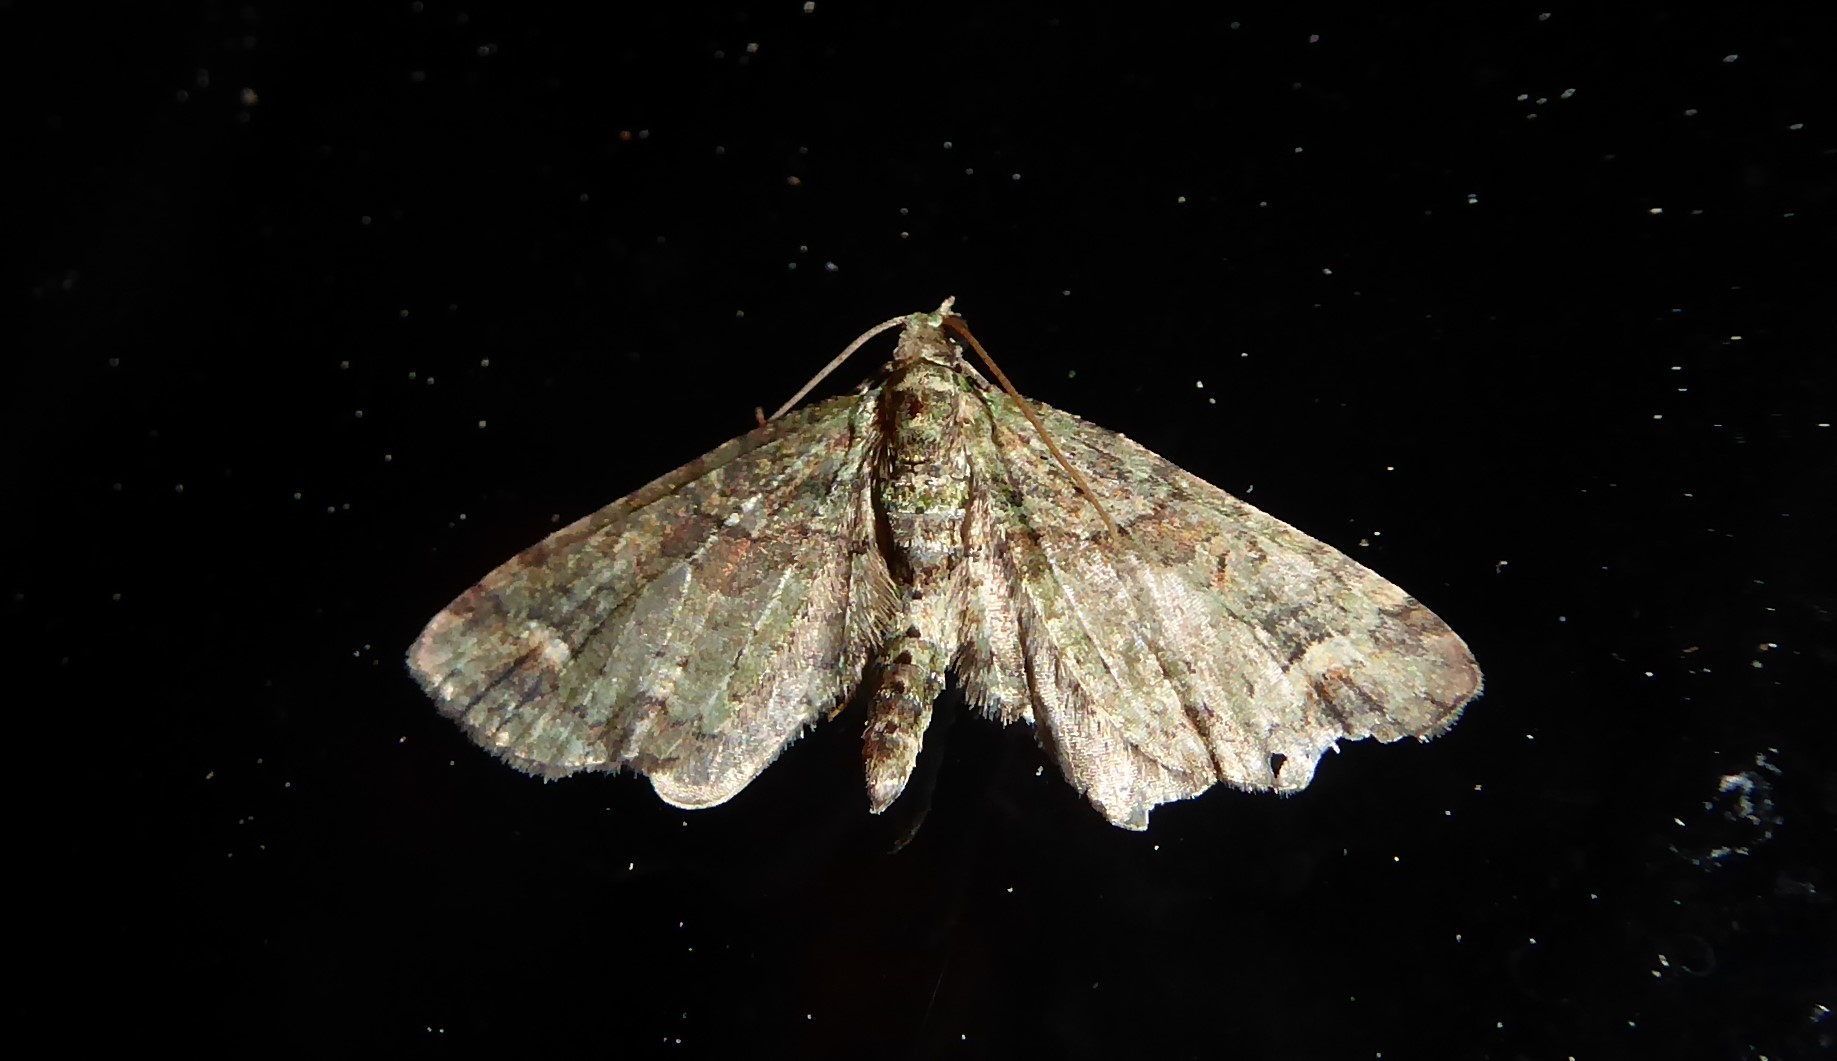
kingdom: Animalia
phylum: Arthropoda
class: Insecta
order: Lepidoptera
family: Geometridae
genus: Idaea
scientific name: Idaea mutanda
